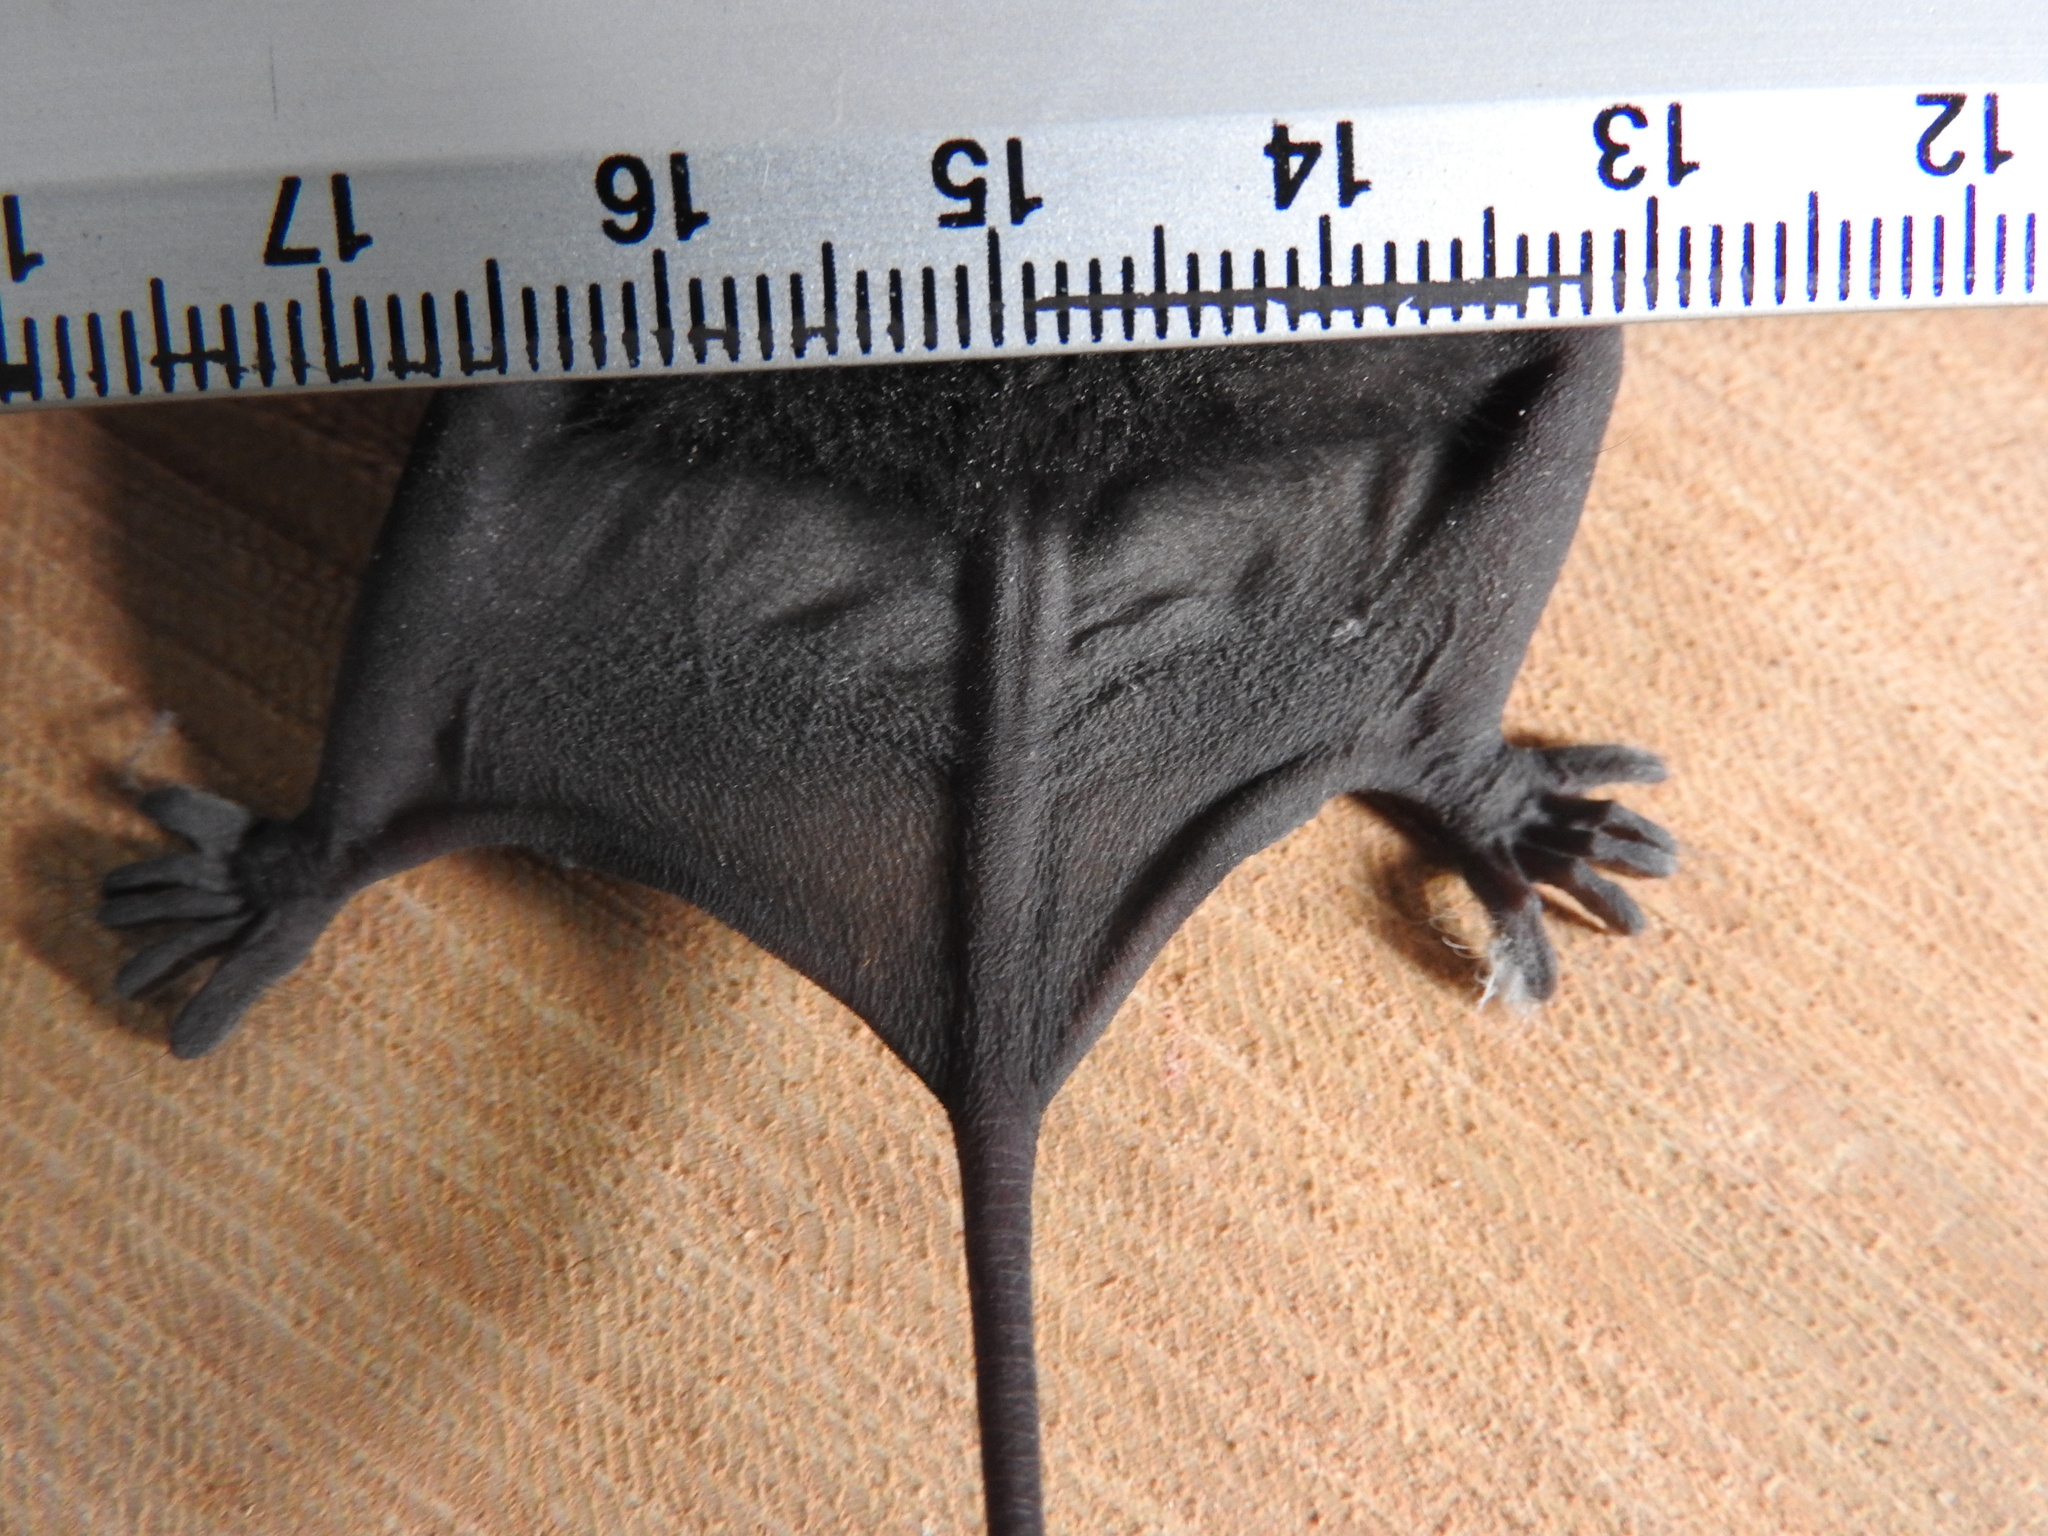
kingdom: Animalia
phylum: Chordata
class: Mammalia
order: Chiroptera
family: Molossidae
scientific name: Molossidae
